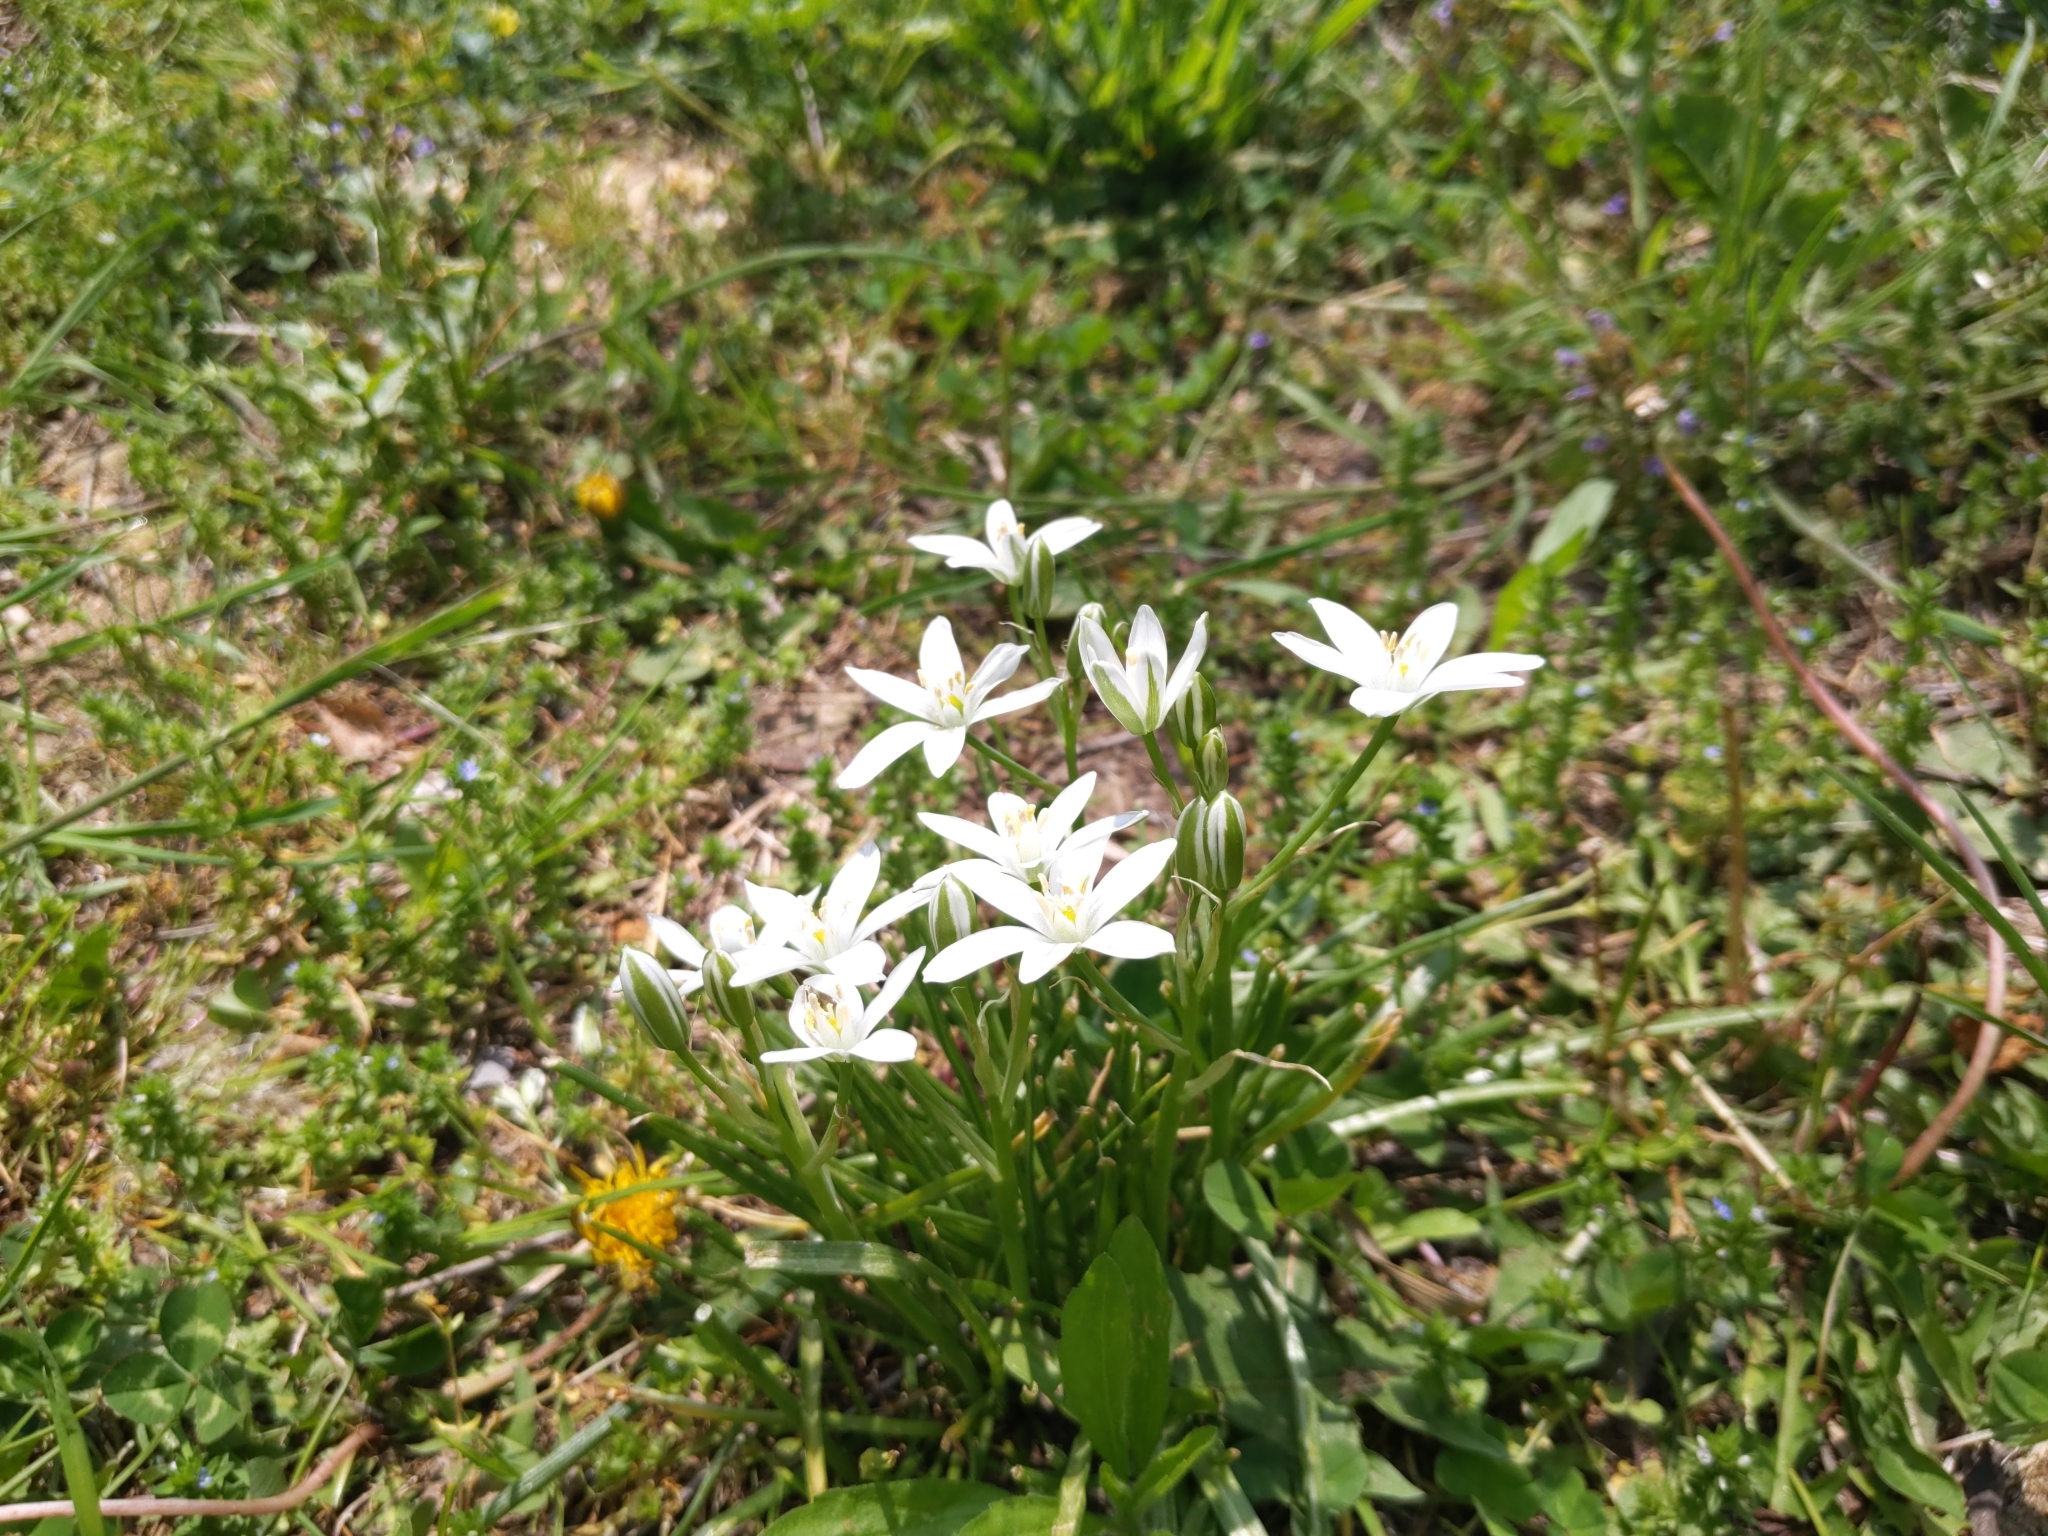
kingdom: Plantae
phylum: Tracheophyta
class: Liliopsida
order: Asparagales
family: Asparagaceae
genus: Ornithogalum
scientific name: Ornithogalum umbellatum
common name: Garden star-of-bethlehem
